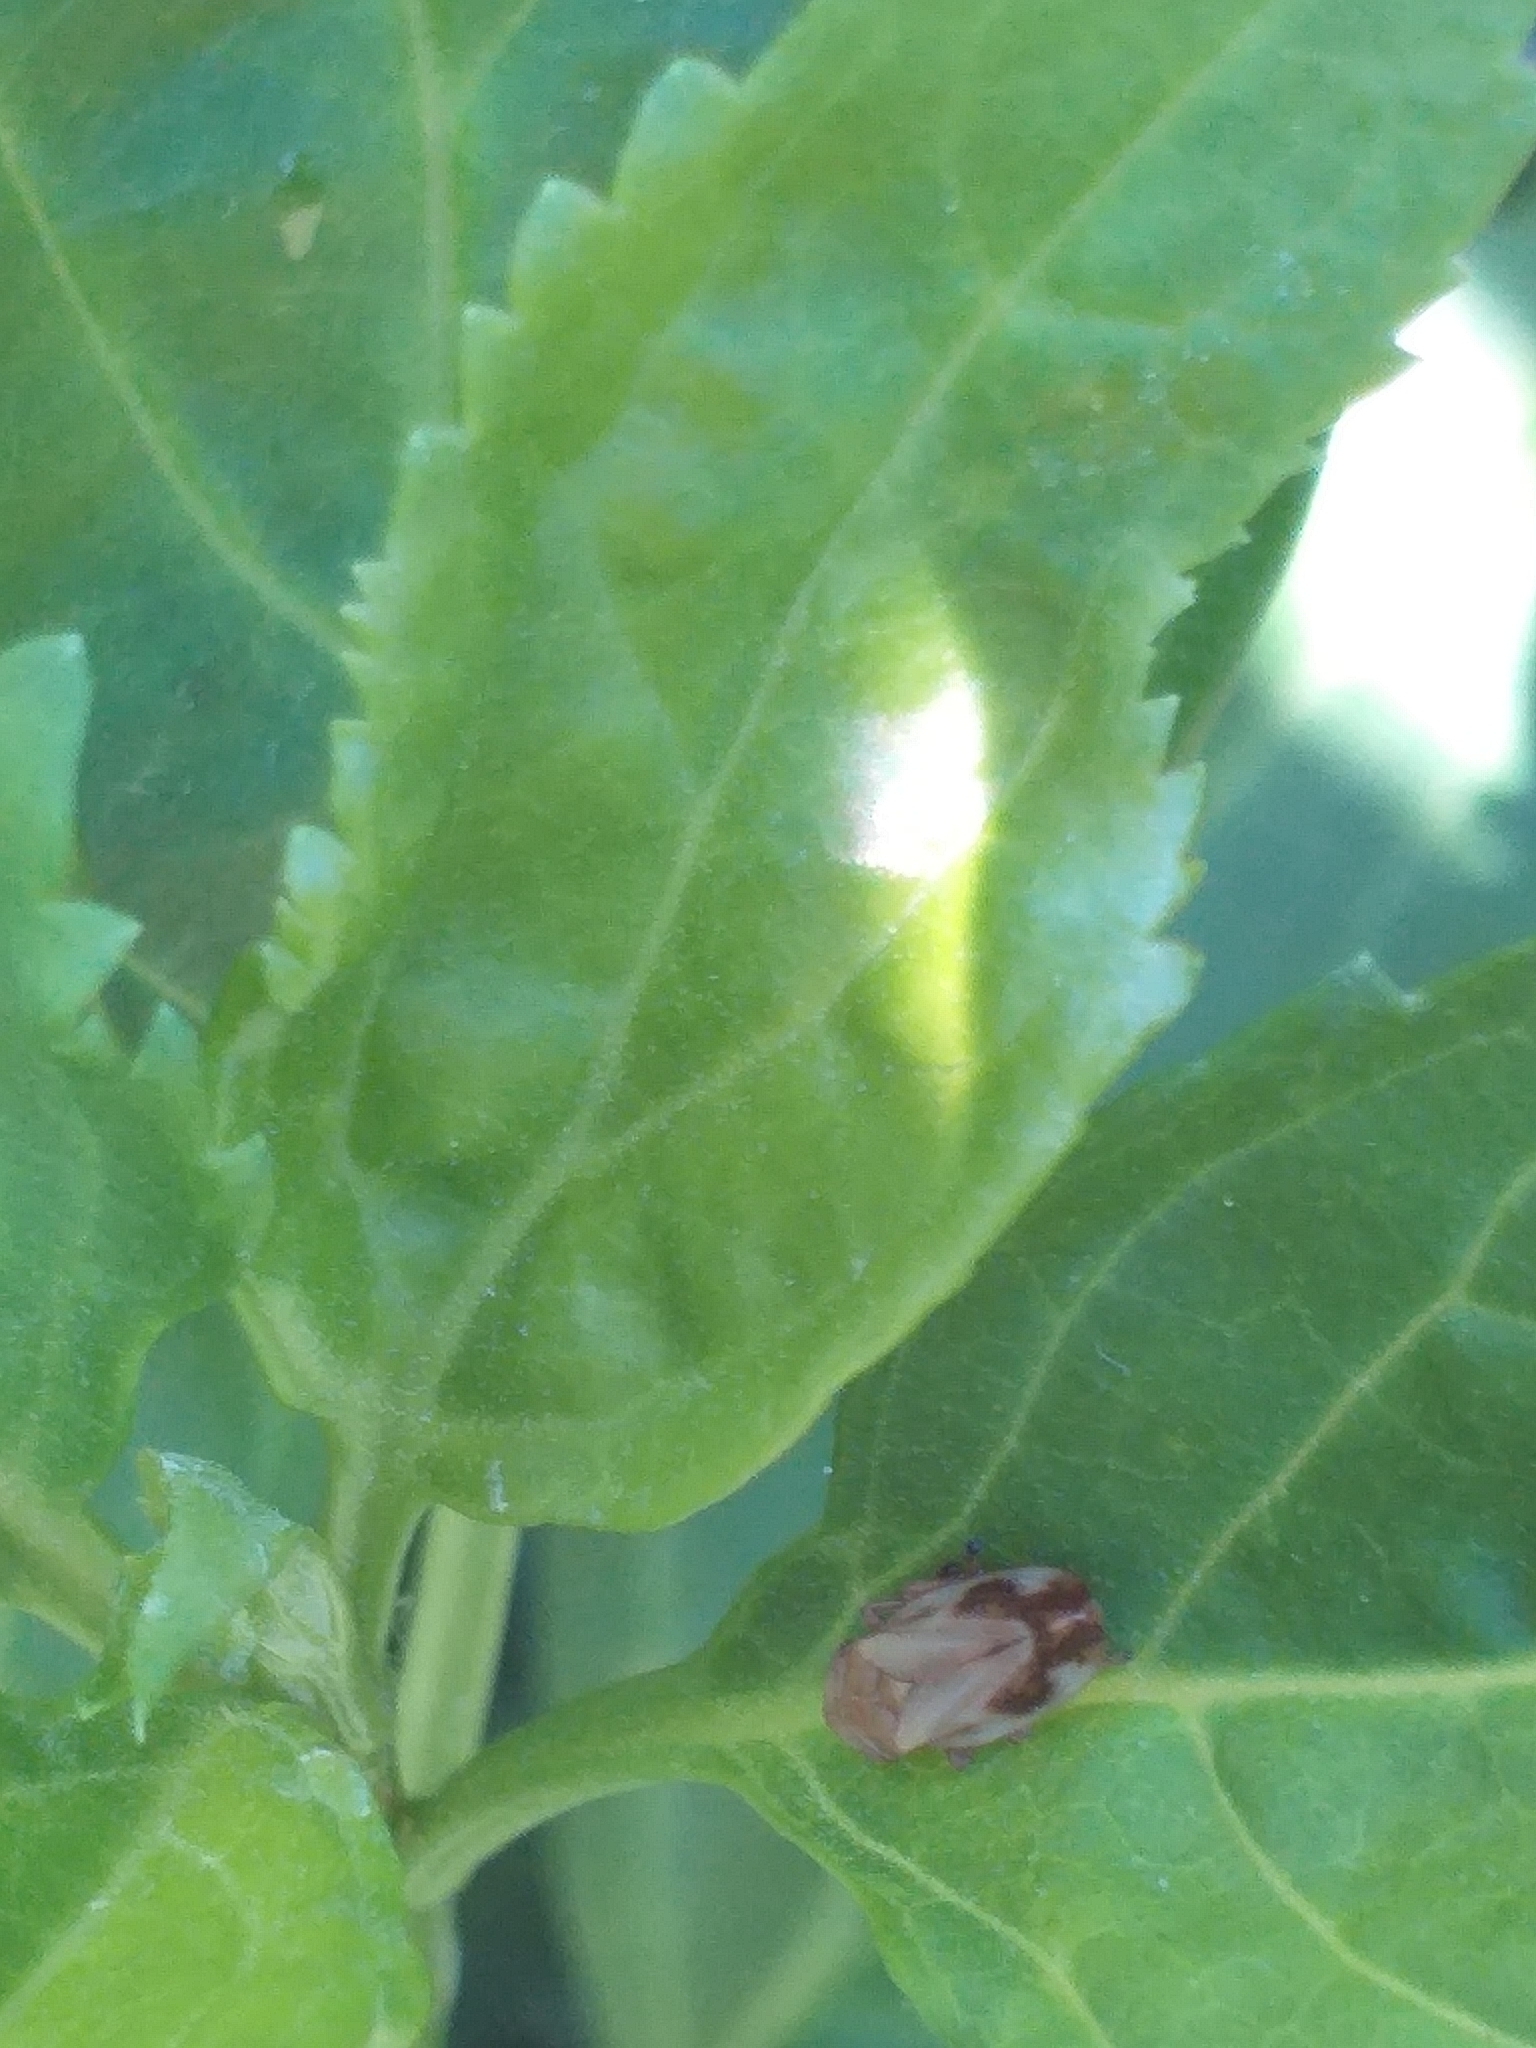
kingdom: Animalia
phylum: Arthropoda
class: Insecta
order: Hemiptera
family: Aphrophoridae
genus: Philaenus
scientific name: Philaenus spumarius
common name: Meadow spittlebug
